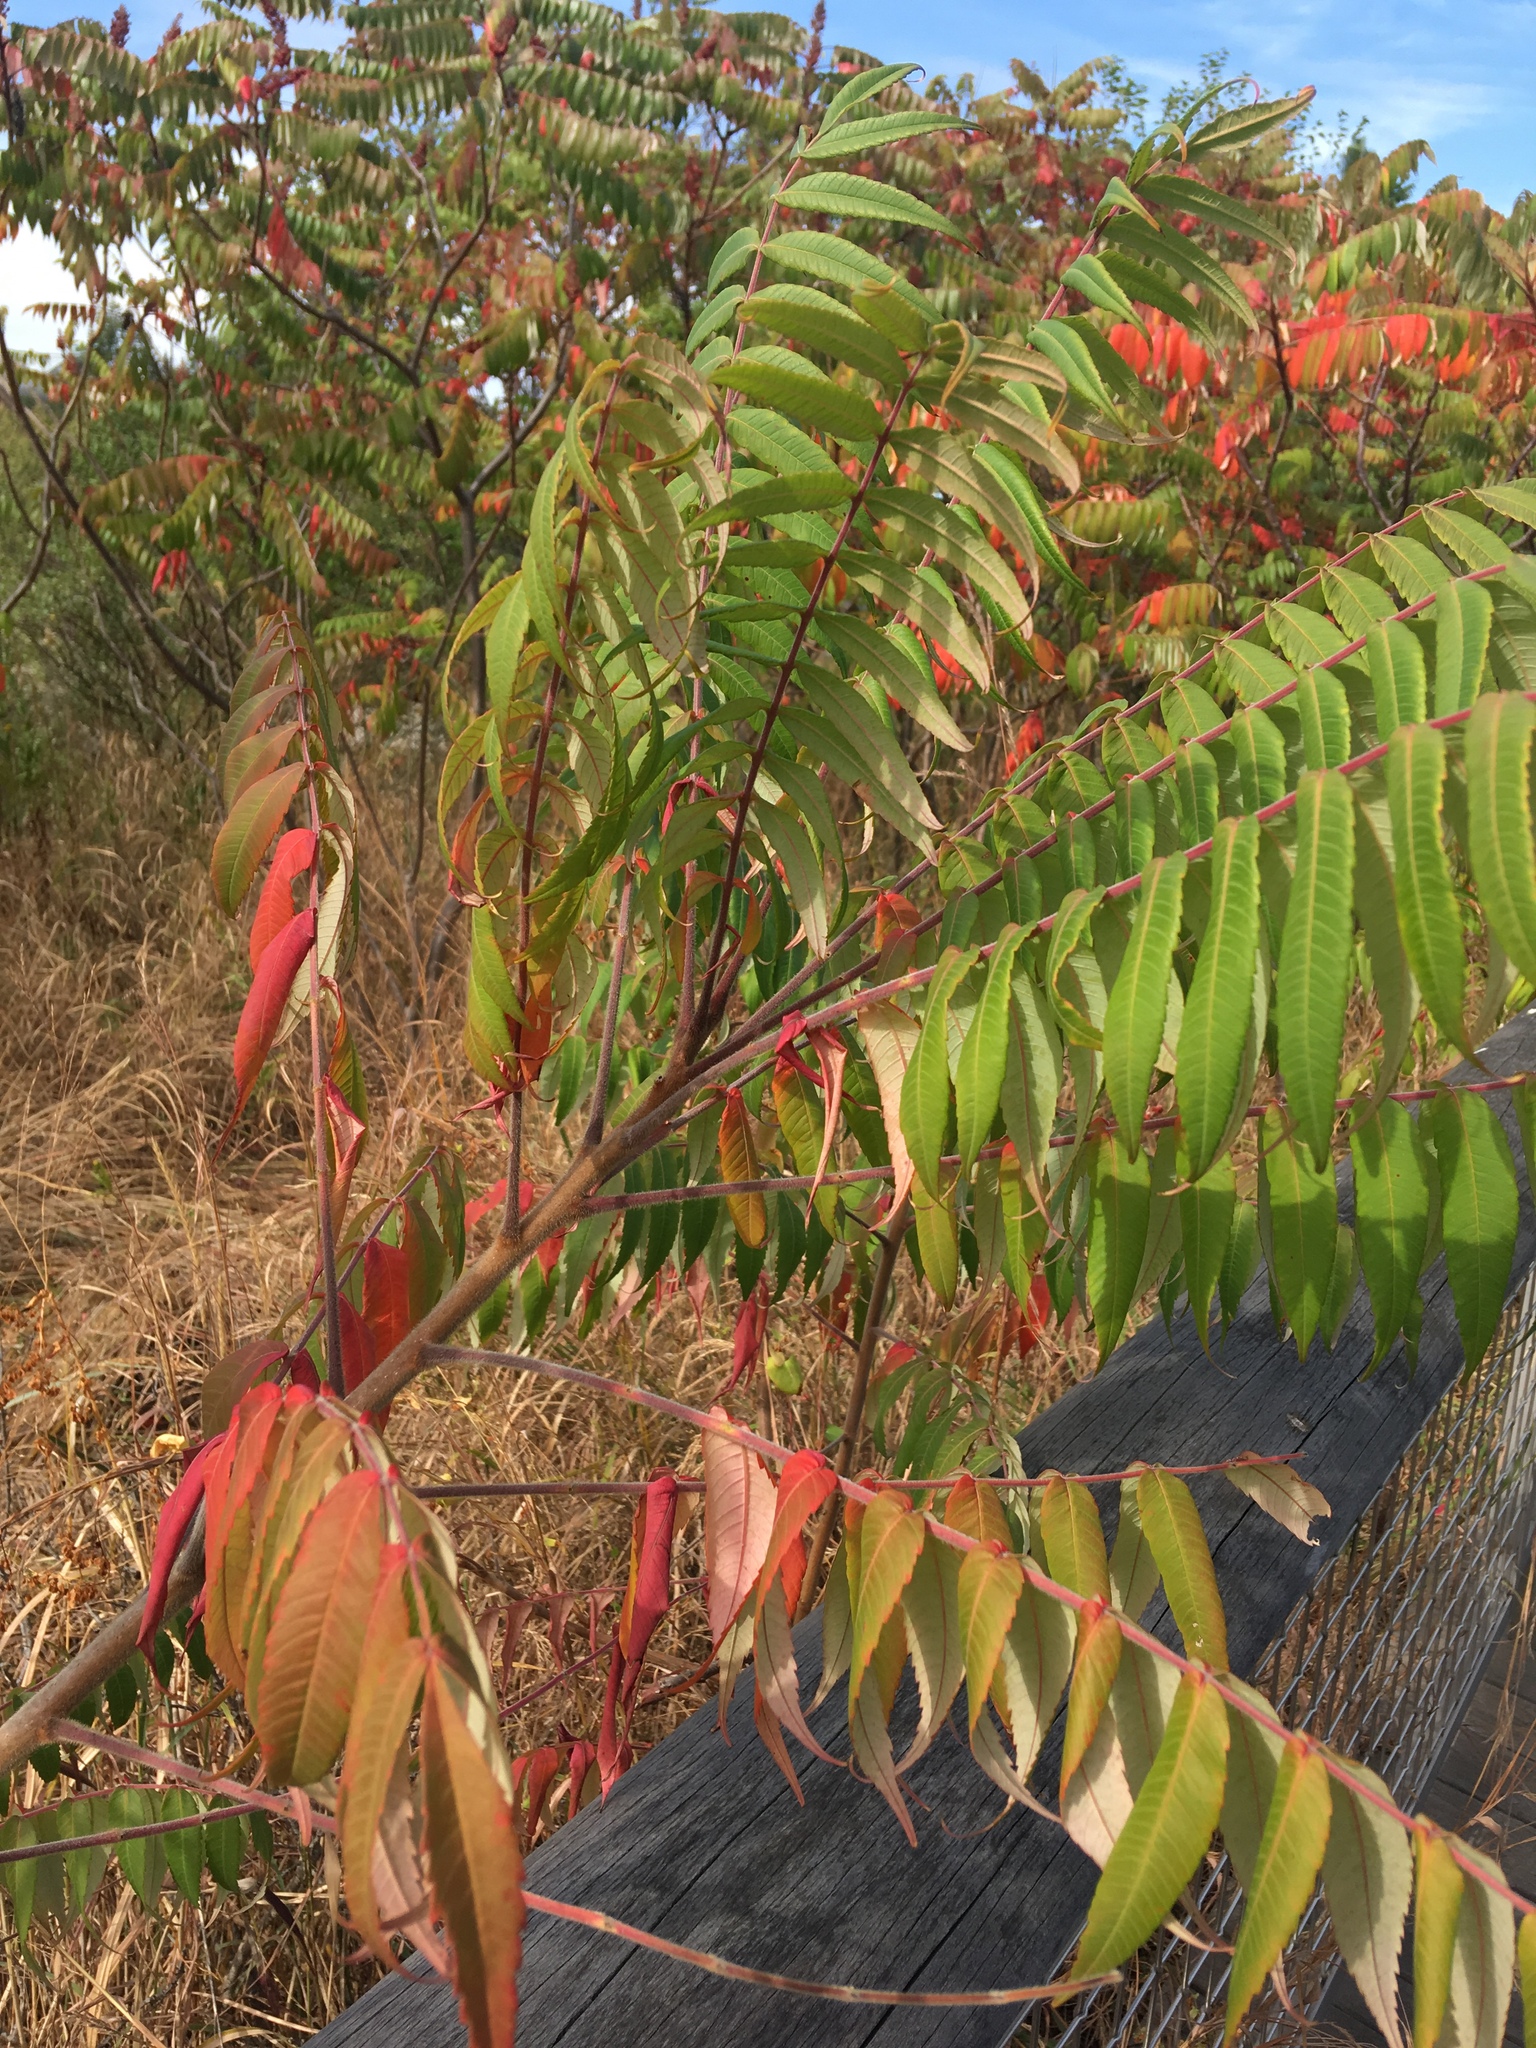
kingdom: Plantae
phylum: Tracheophyta
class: Magnoliopsida
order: Sapindales
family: Anacardiaceae
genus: Rhus
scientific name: Rhus typhina
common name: Staghorn sumac
